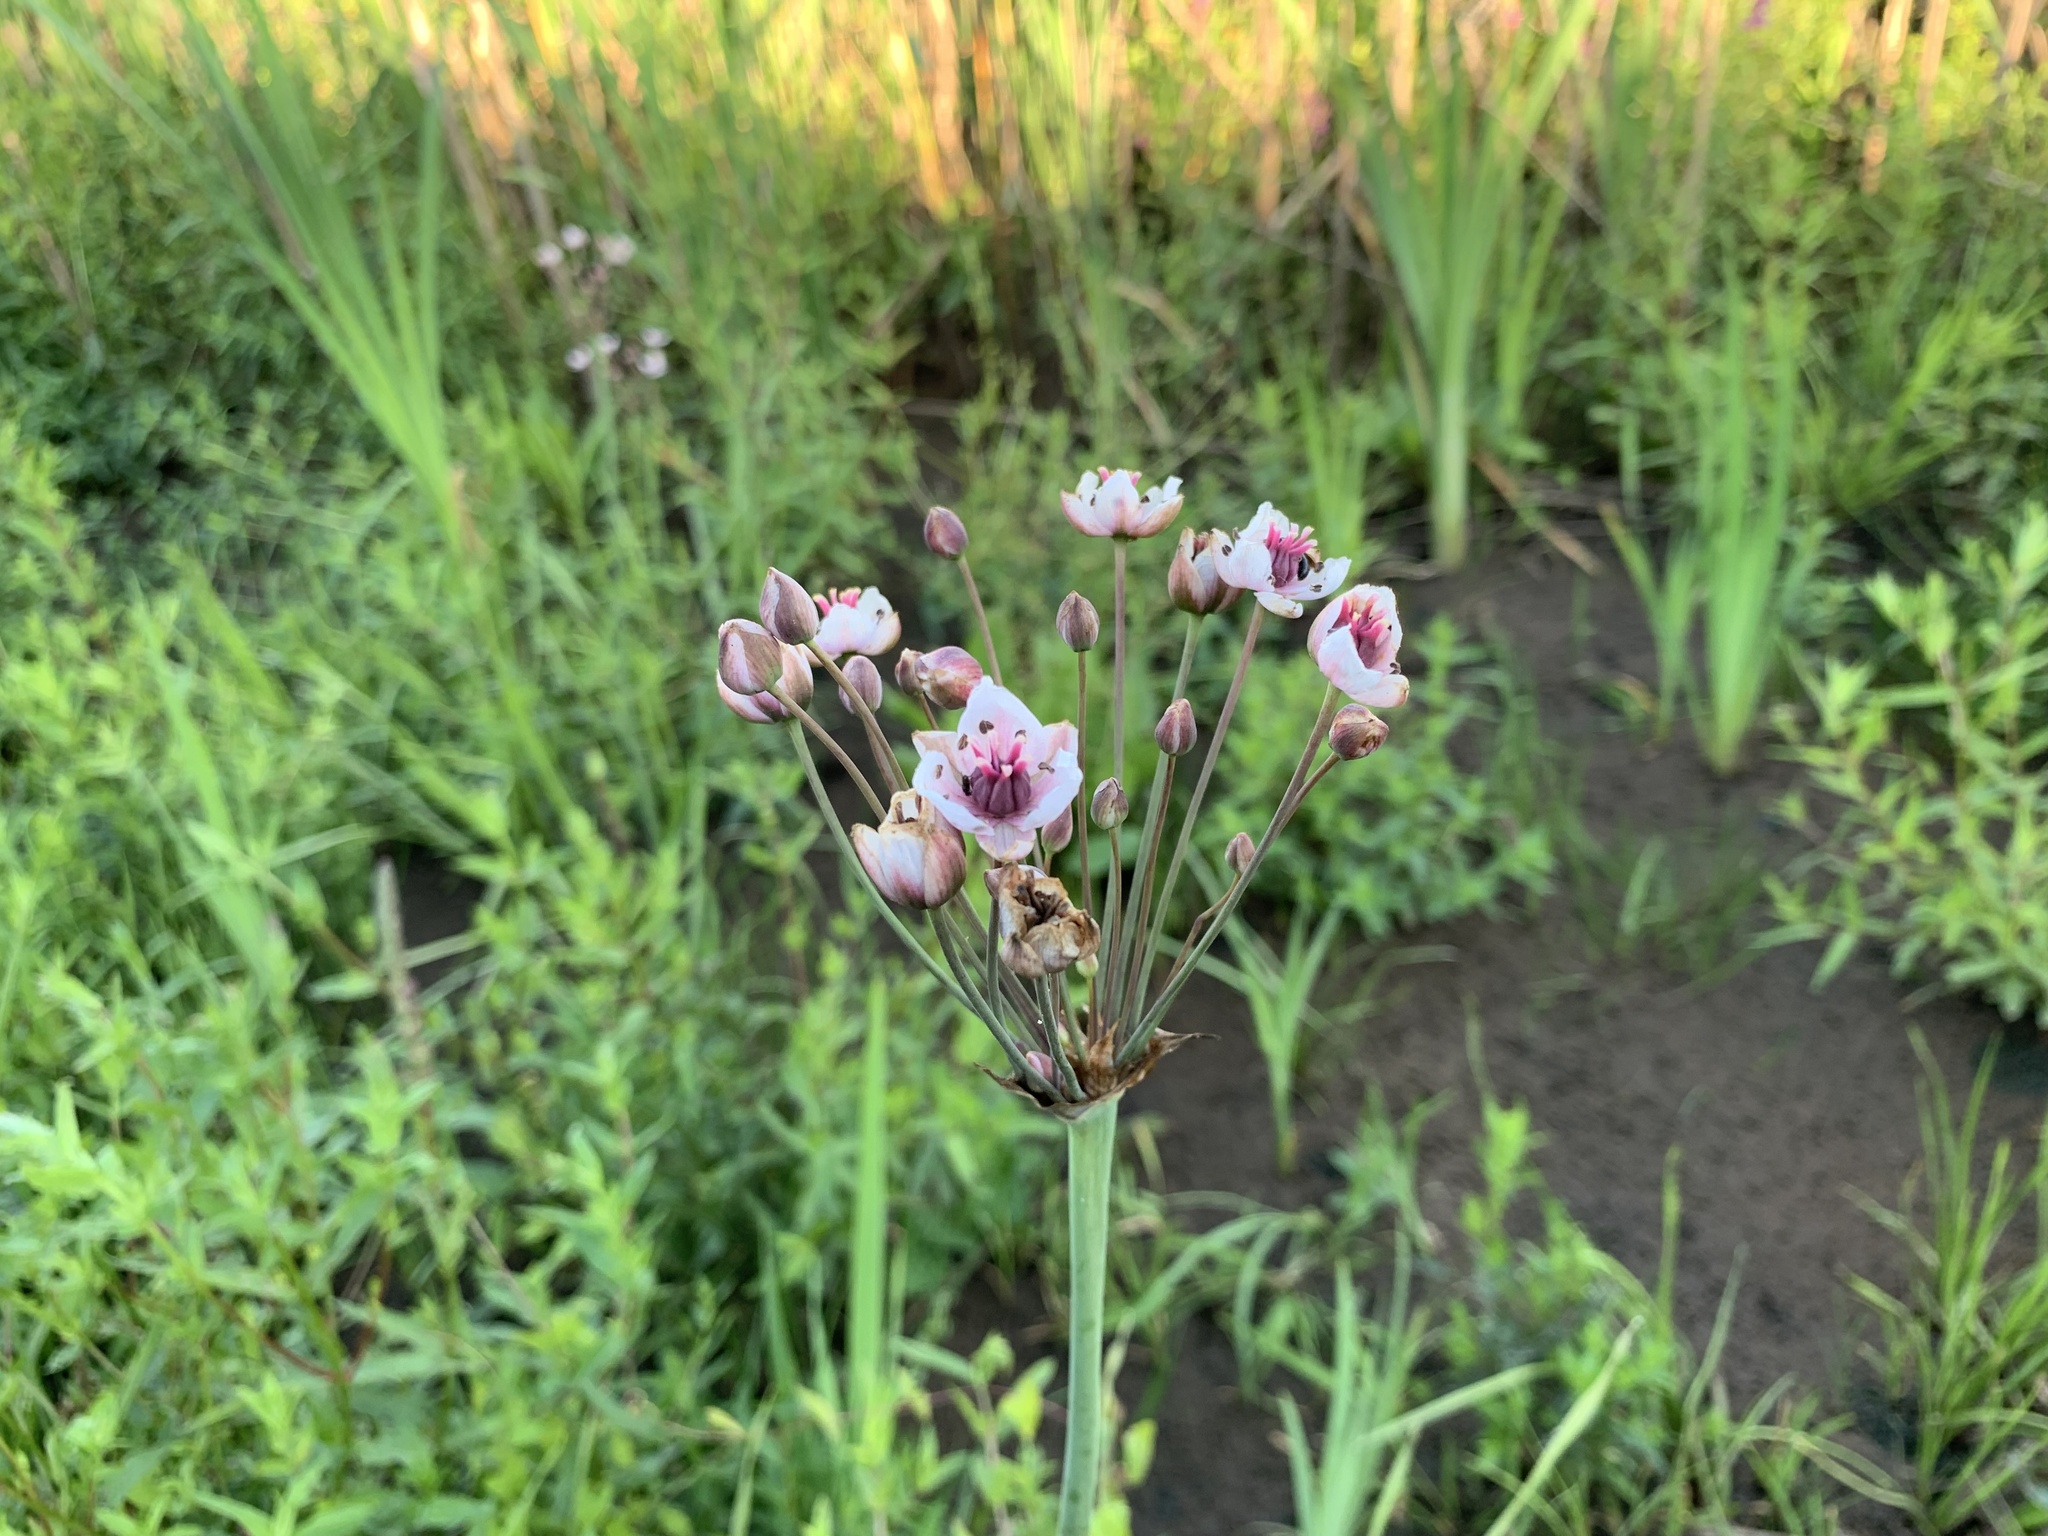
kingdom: Plantae
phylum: Tracheophyta
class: Liliopsida
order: Alismatales
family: Butomaceae
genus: Butomus
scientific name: Butomus umbellatus
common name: Flowering-rush
